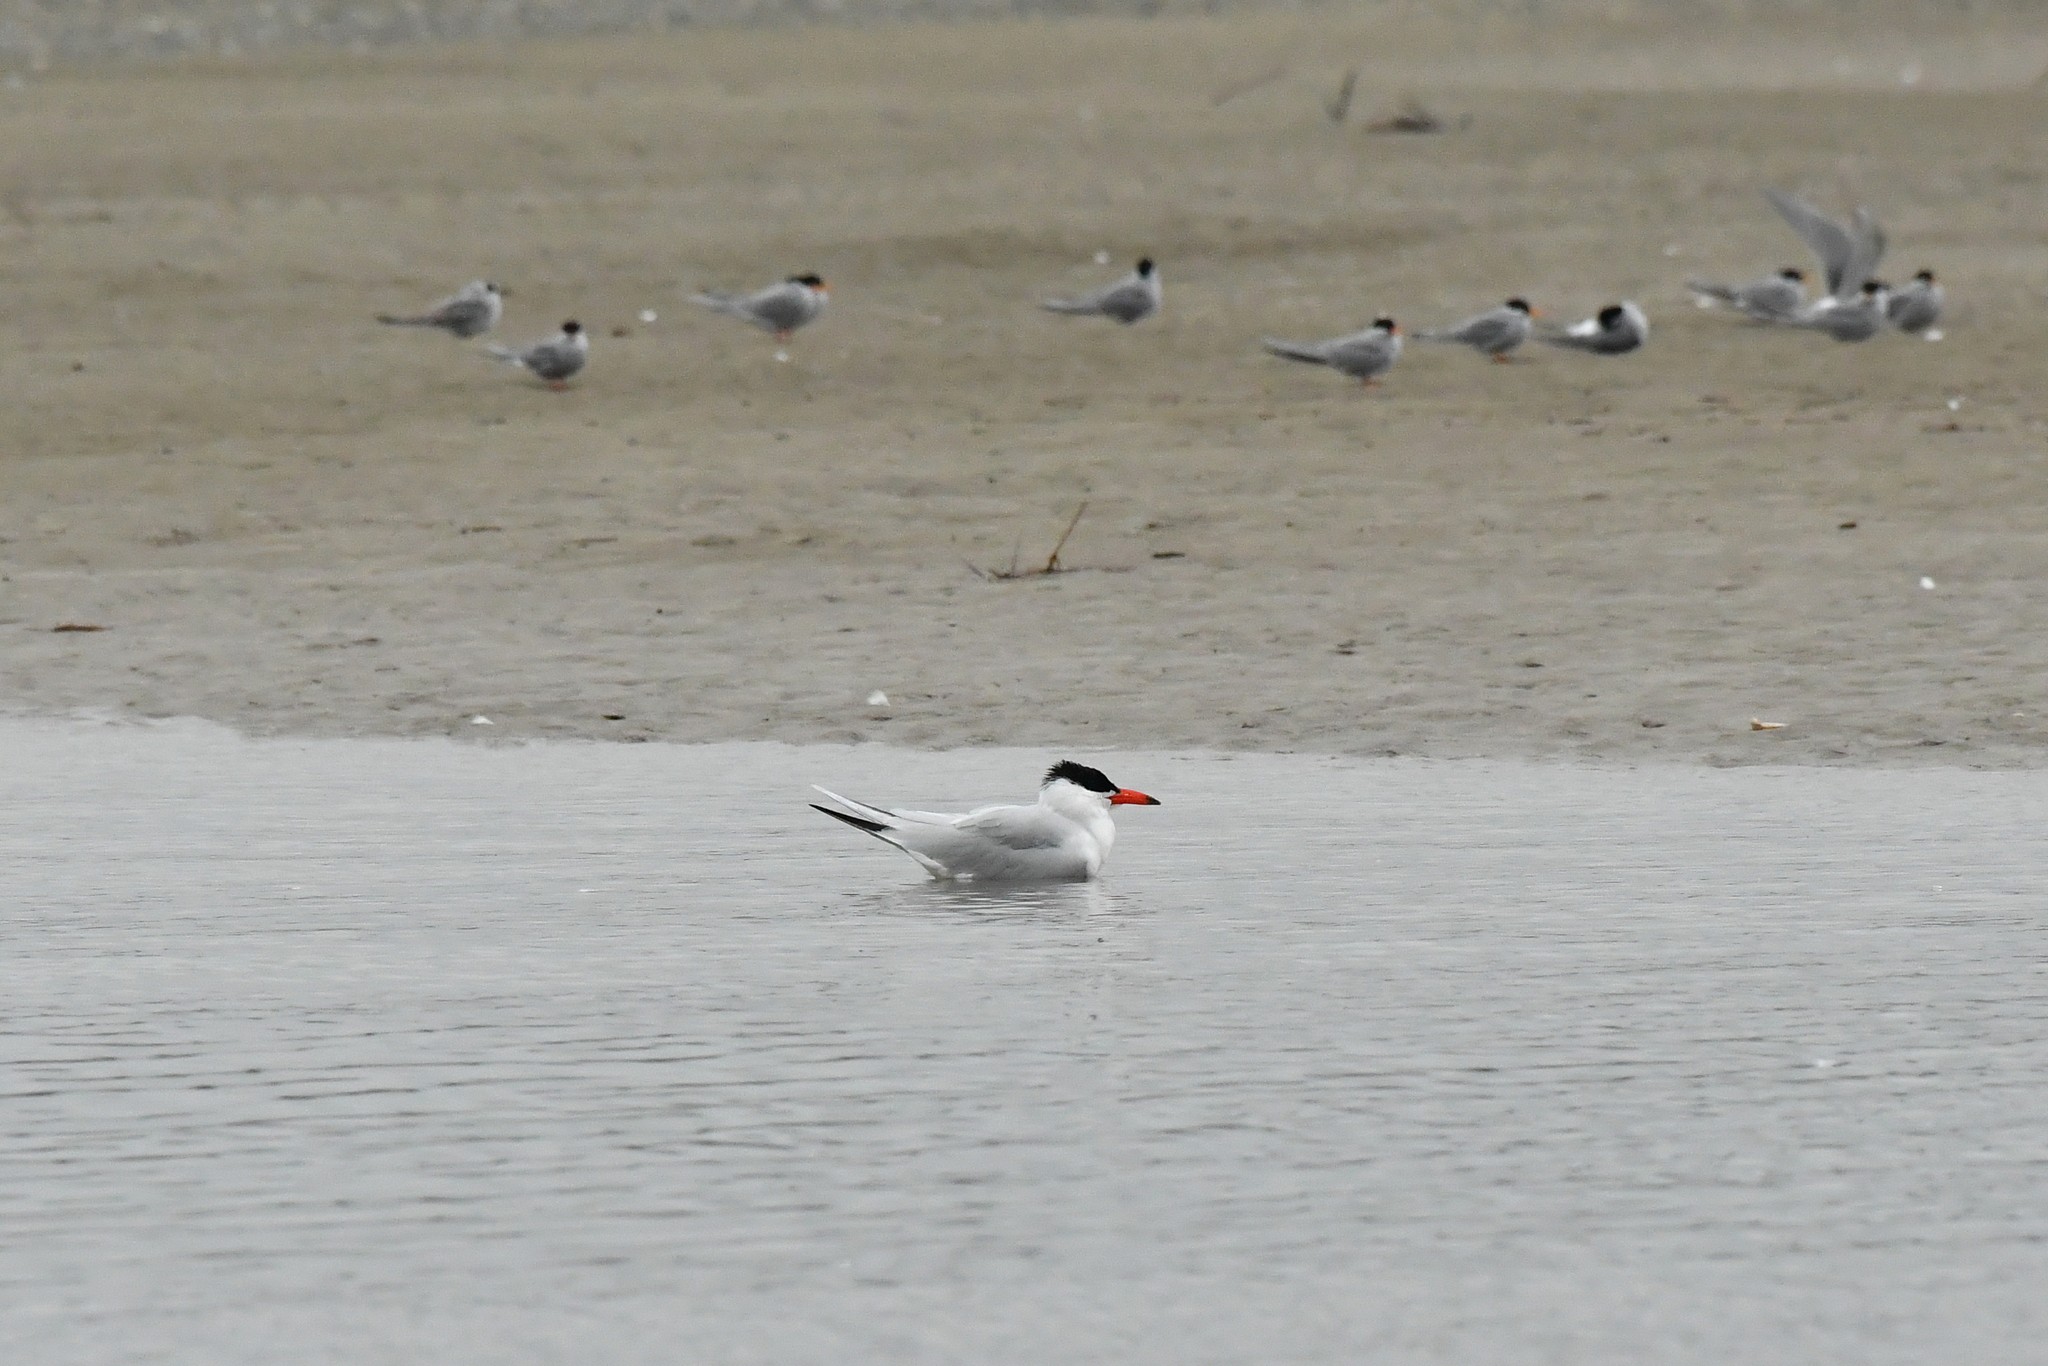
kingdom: Animalia
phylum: Chordata
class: Aves
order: Charadriiformes
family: Laridae
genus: Hydroprogne
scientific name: Hydroprogne caspia
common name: Caspian tern
